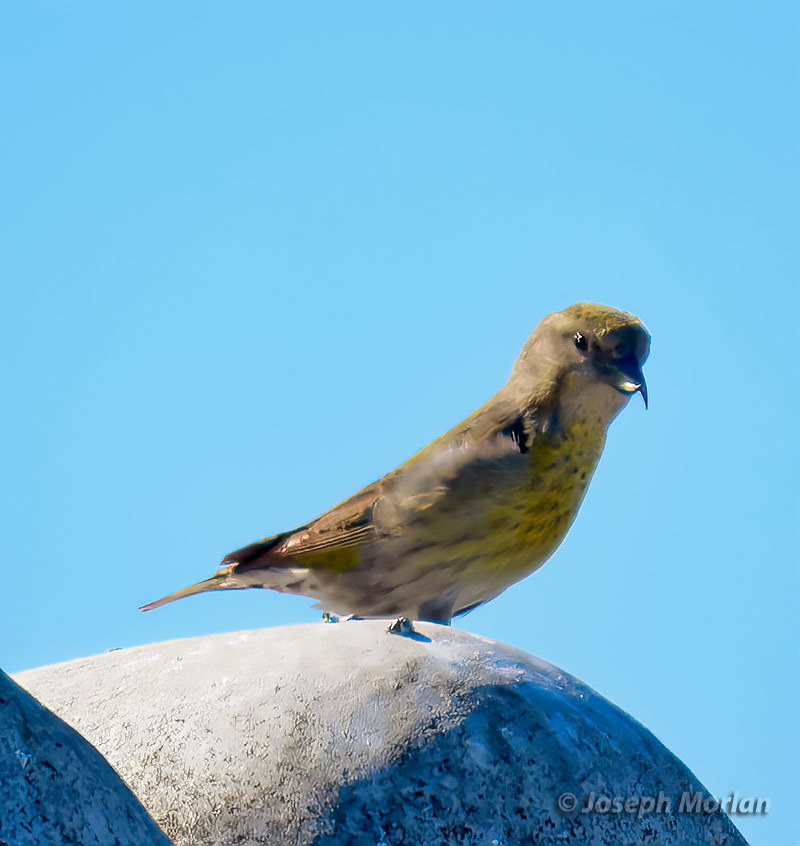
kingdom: Animalia
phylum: Chordata
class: Aves
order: Passeriformes
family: Fringillidae
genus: Loxia
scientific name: Loxia curvirostra
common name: Red crossbill
